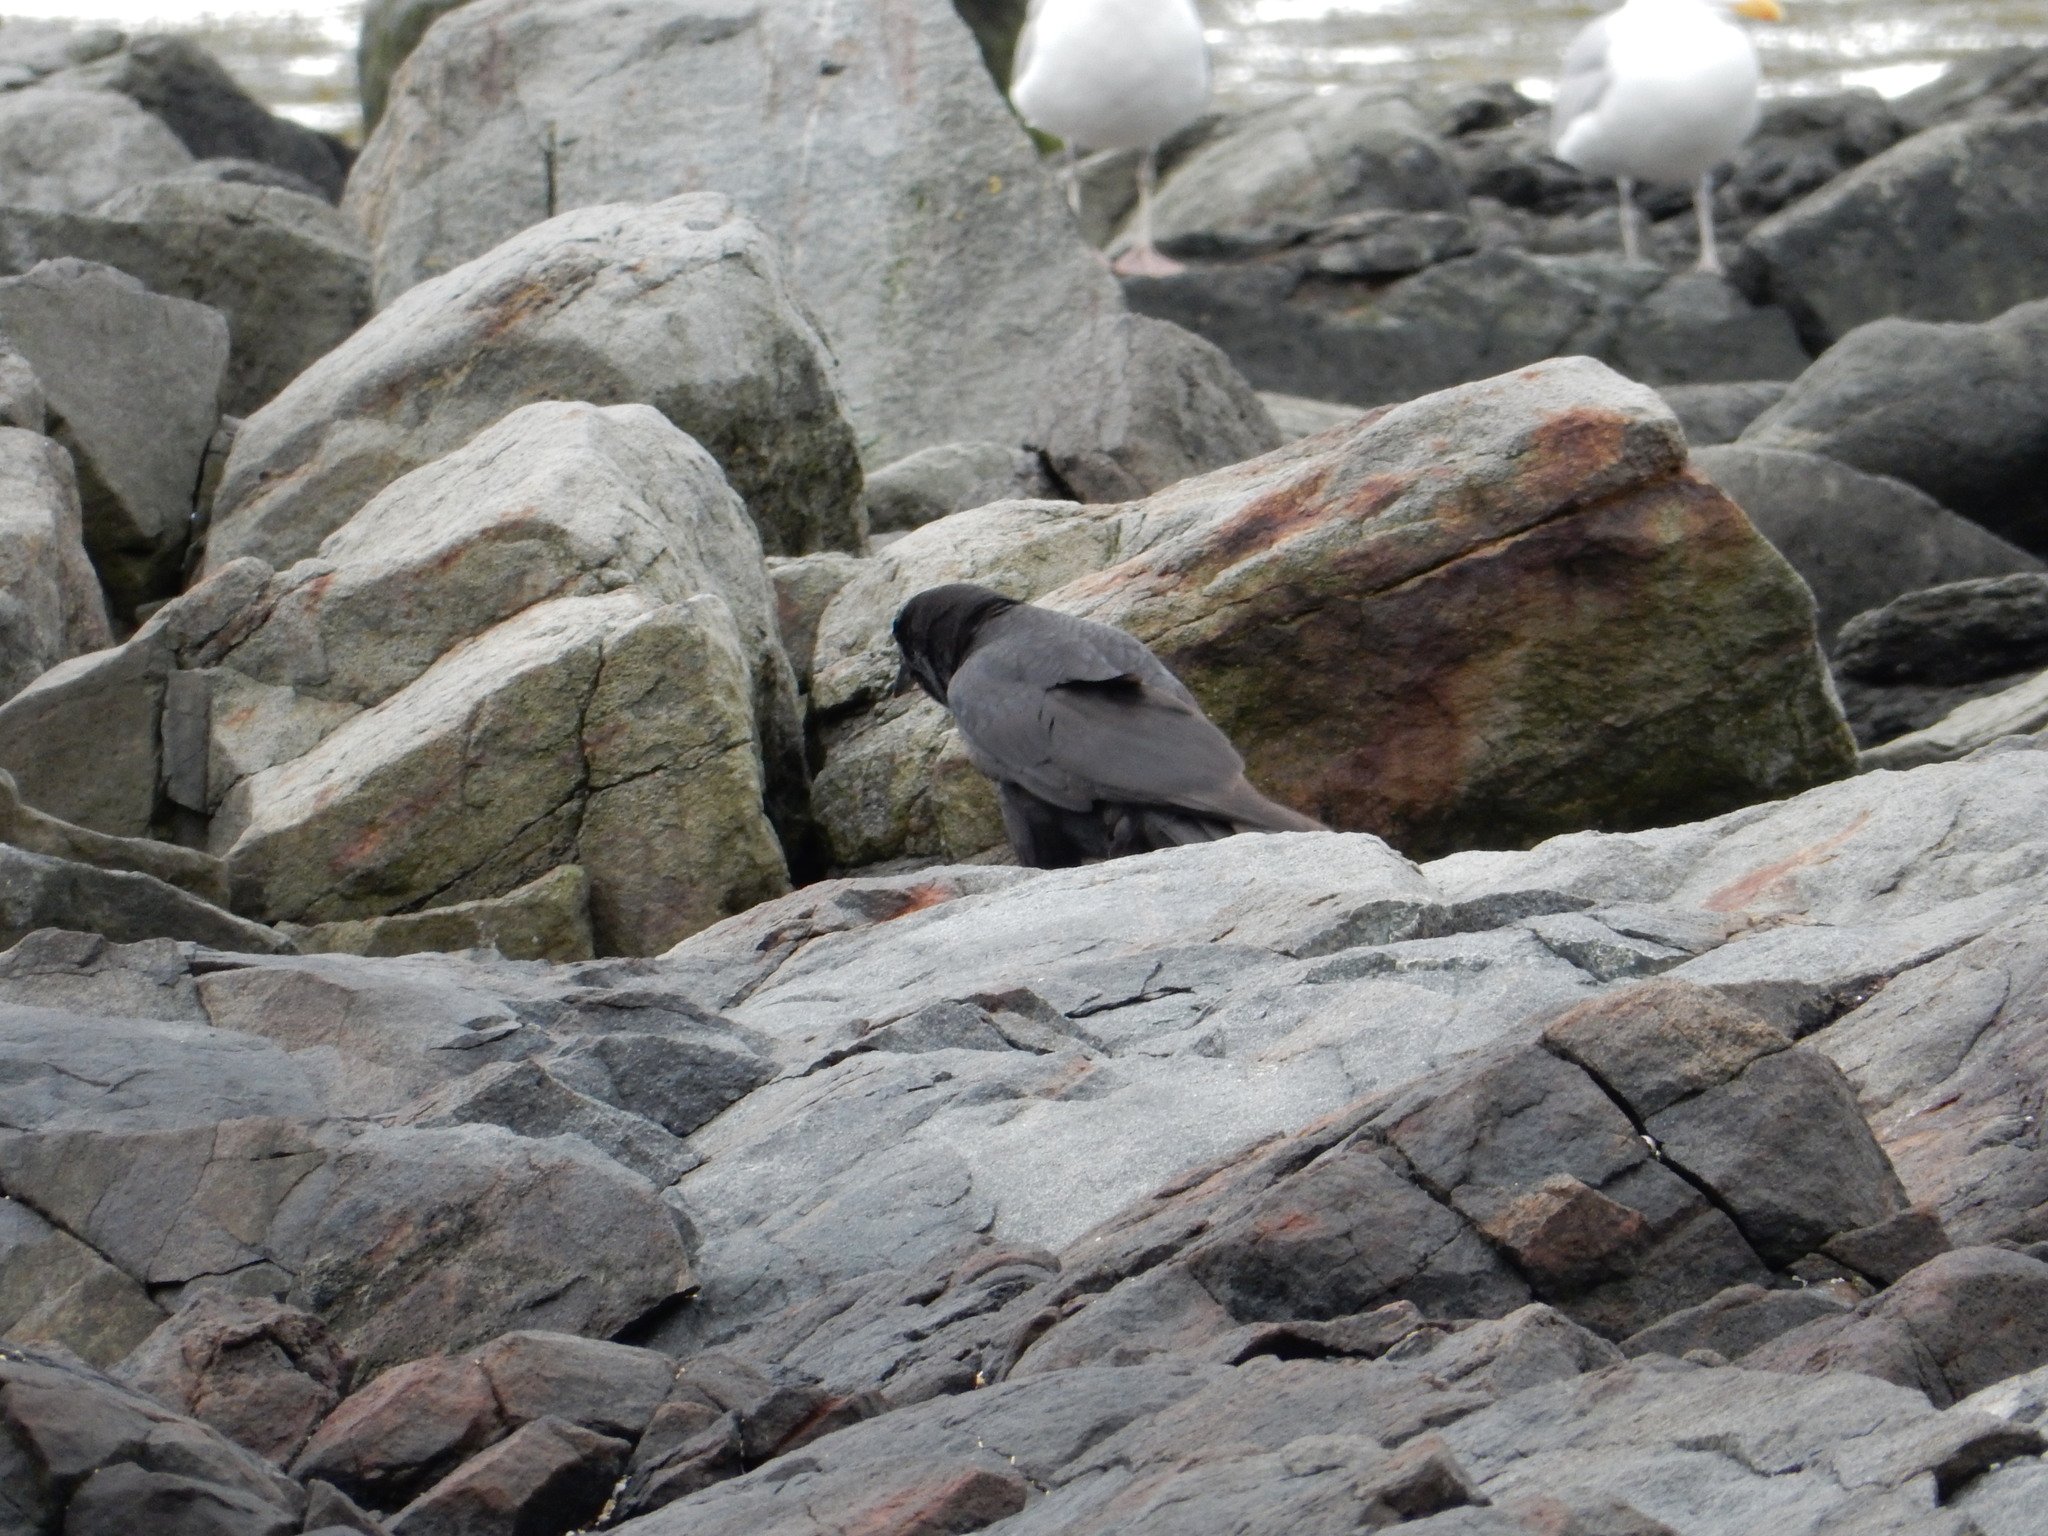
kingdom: Animalia
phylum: Chordata
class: Aves
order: Passeriformes
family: Corvidae
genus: Corvus
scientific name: Corvus brachyrhynchos
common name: American crow
